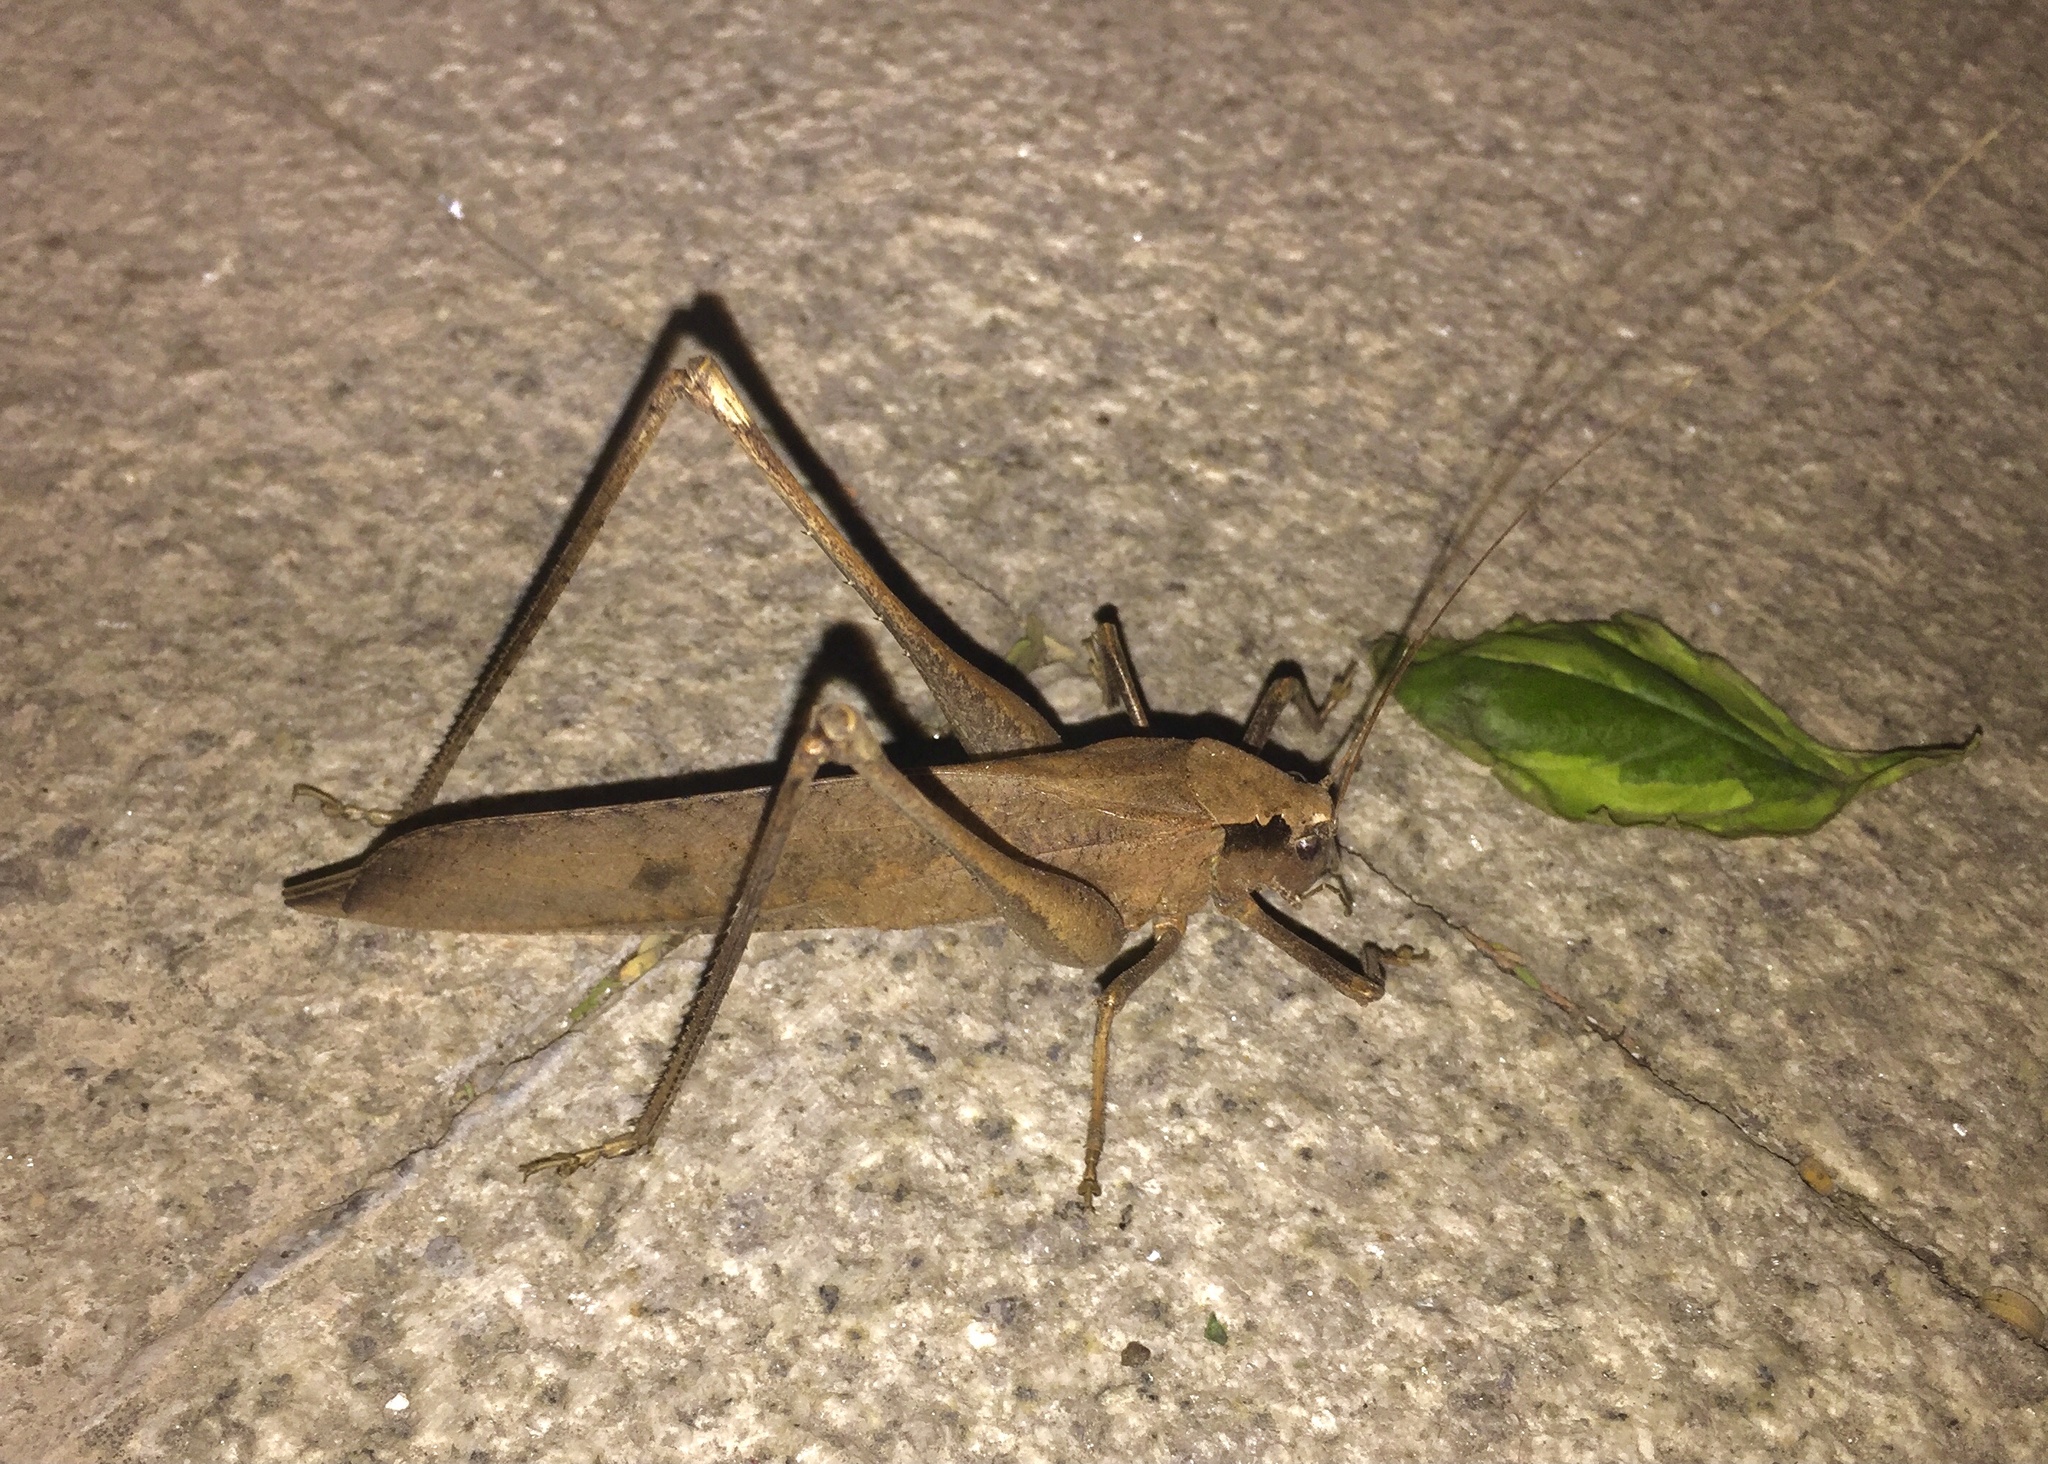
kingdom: Animalia
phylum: Arthropoda
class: Insecta
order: Orthoptera
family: Tettigoniidae
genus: Mecopoda
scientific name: Mecopoda elongata
